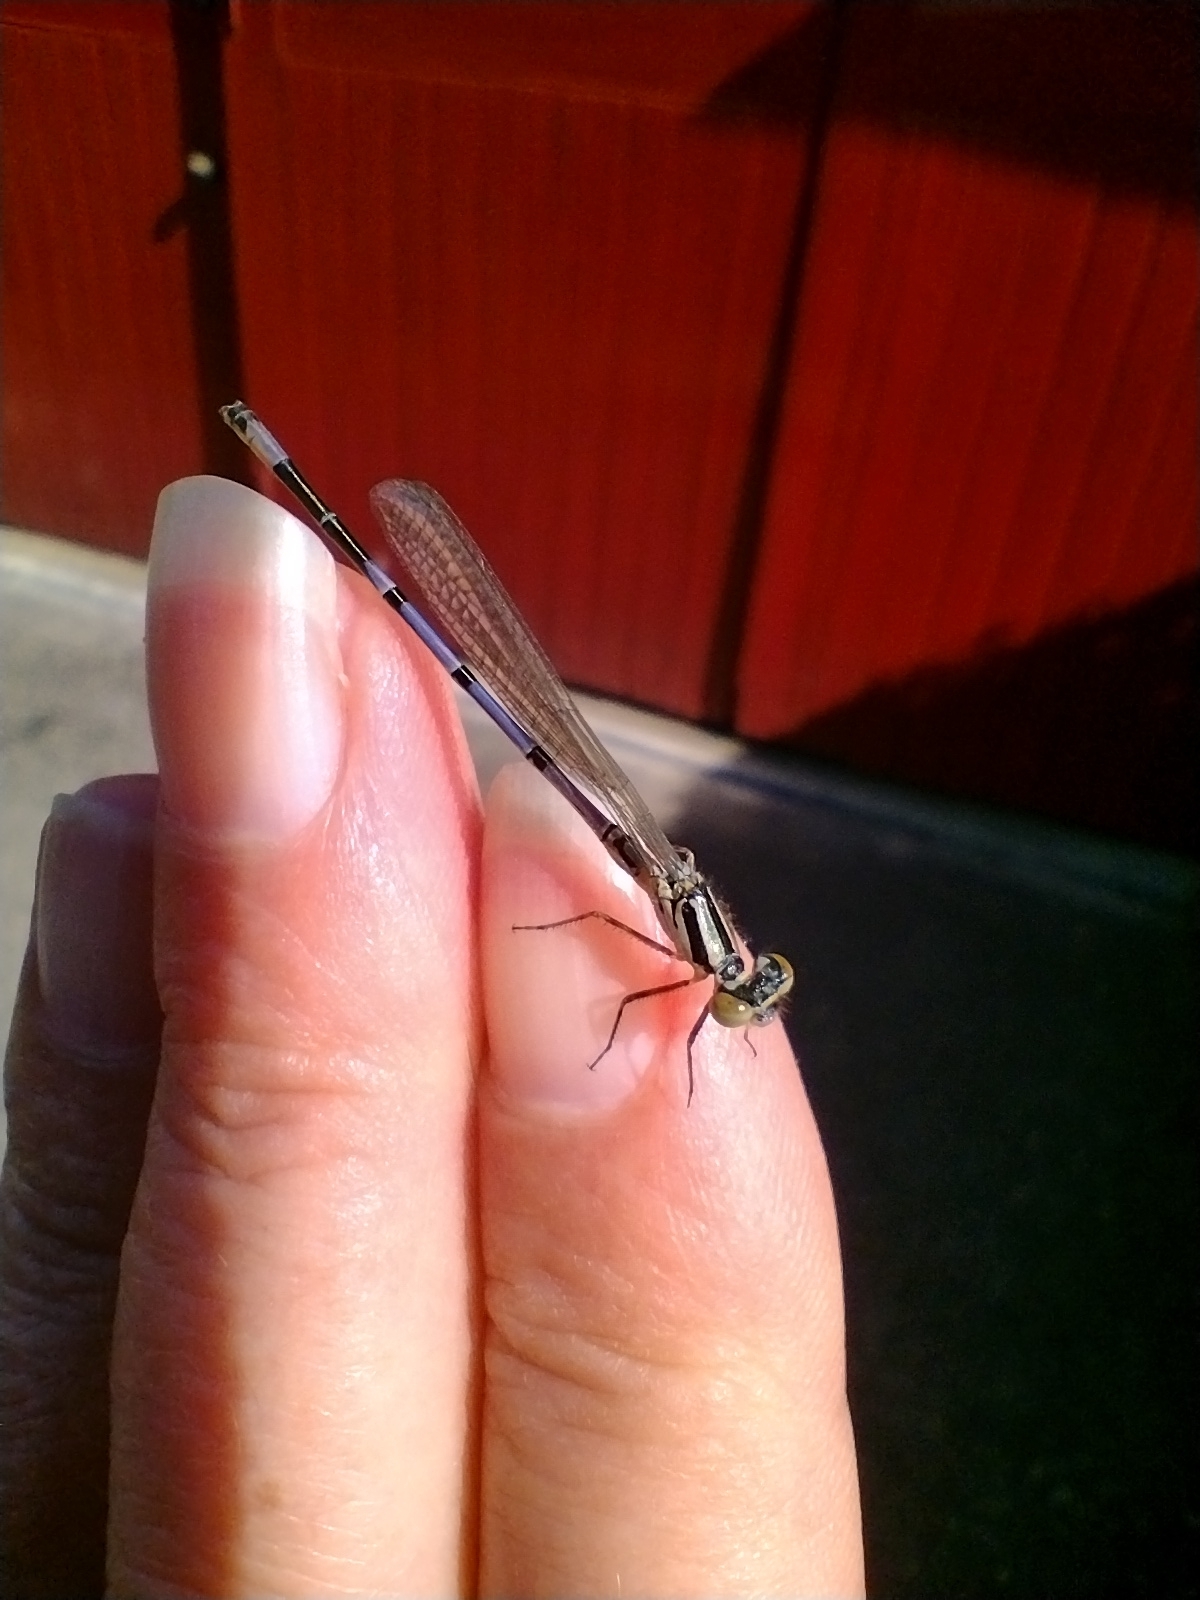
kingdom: Animalia
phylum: Arthropoda
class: Insecta
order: Odonata
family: Coenagrionidae
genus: Coenagrion
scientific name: Coenagrion puella
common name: Azure damselfly
